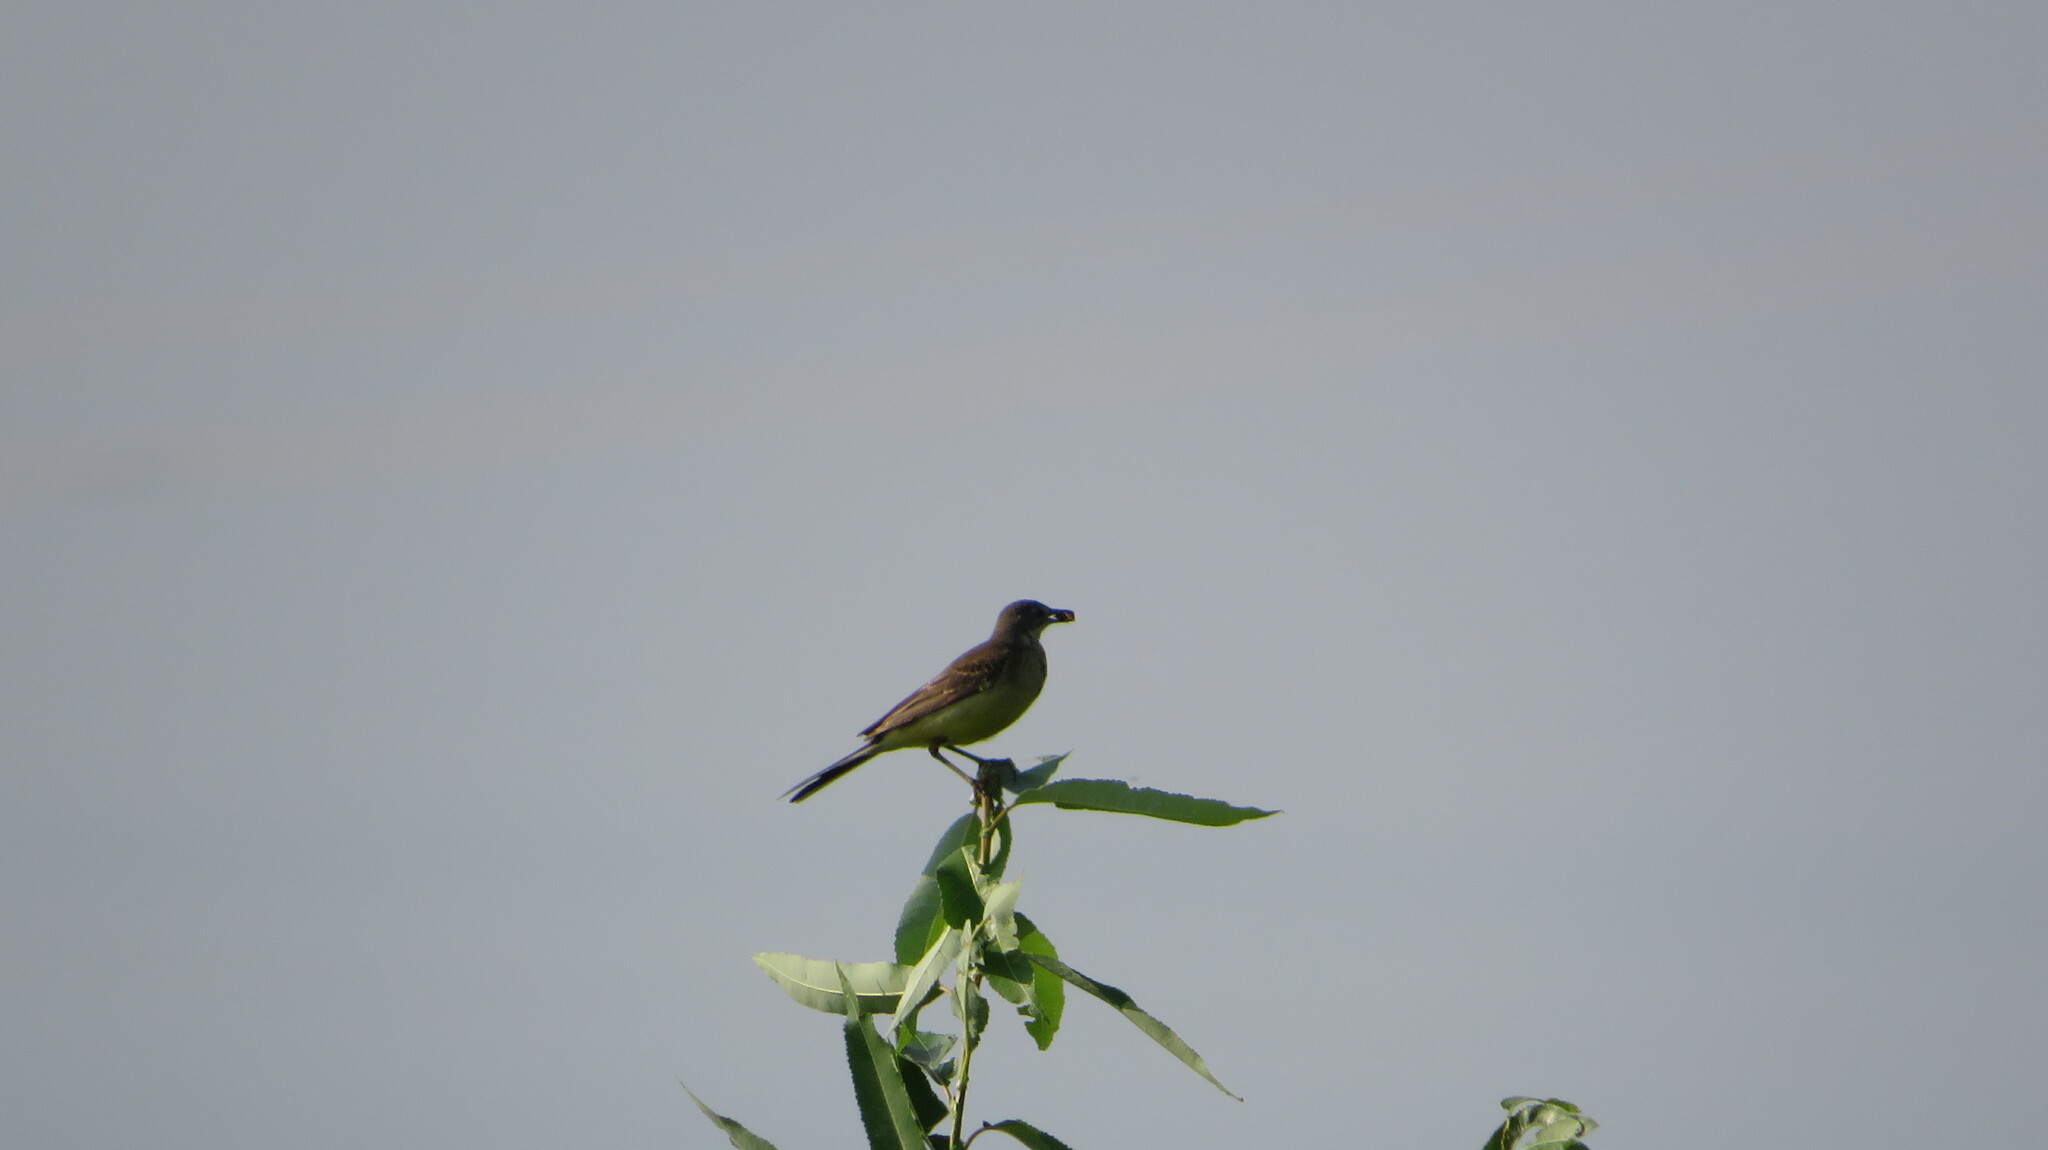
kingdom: Animalia
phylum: Chordata
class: Aves
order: Passeriformes
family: Motacillidae
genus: Motacilla
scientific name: Motacilla flava
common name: Western yellow wagtail
